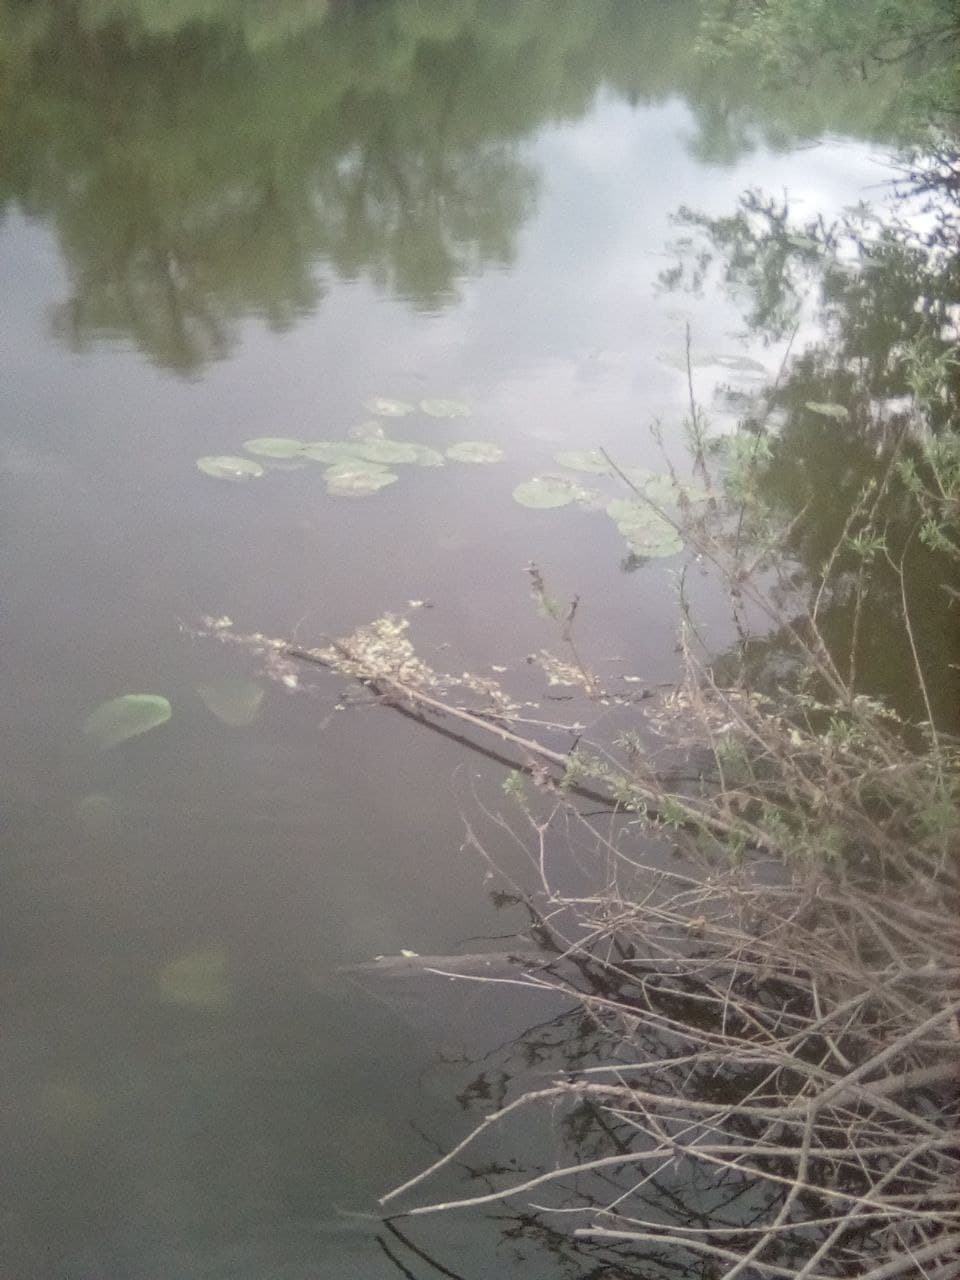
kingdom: Plantae
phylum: Tracheophyta
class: Magnoliopsida
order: Nymphaeales
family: Nymphaeaceae
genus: Nuphar
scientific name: Nuphar lutea
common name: Yellow water-lily
